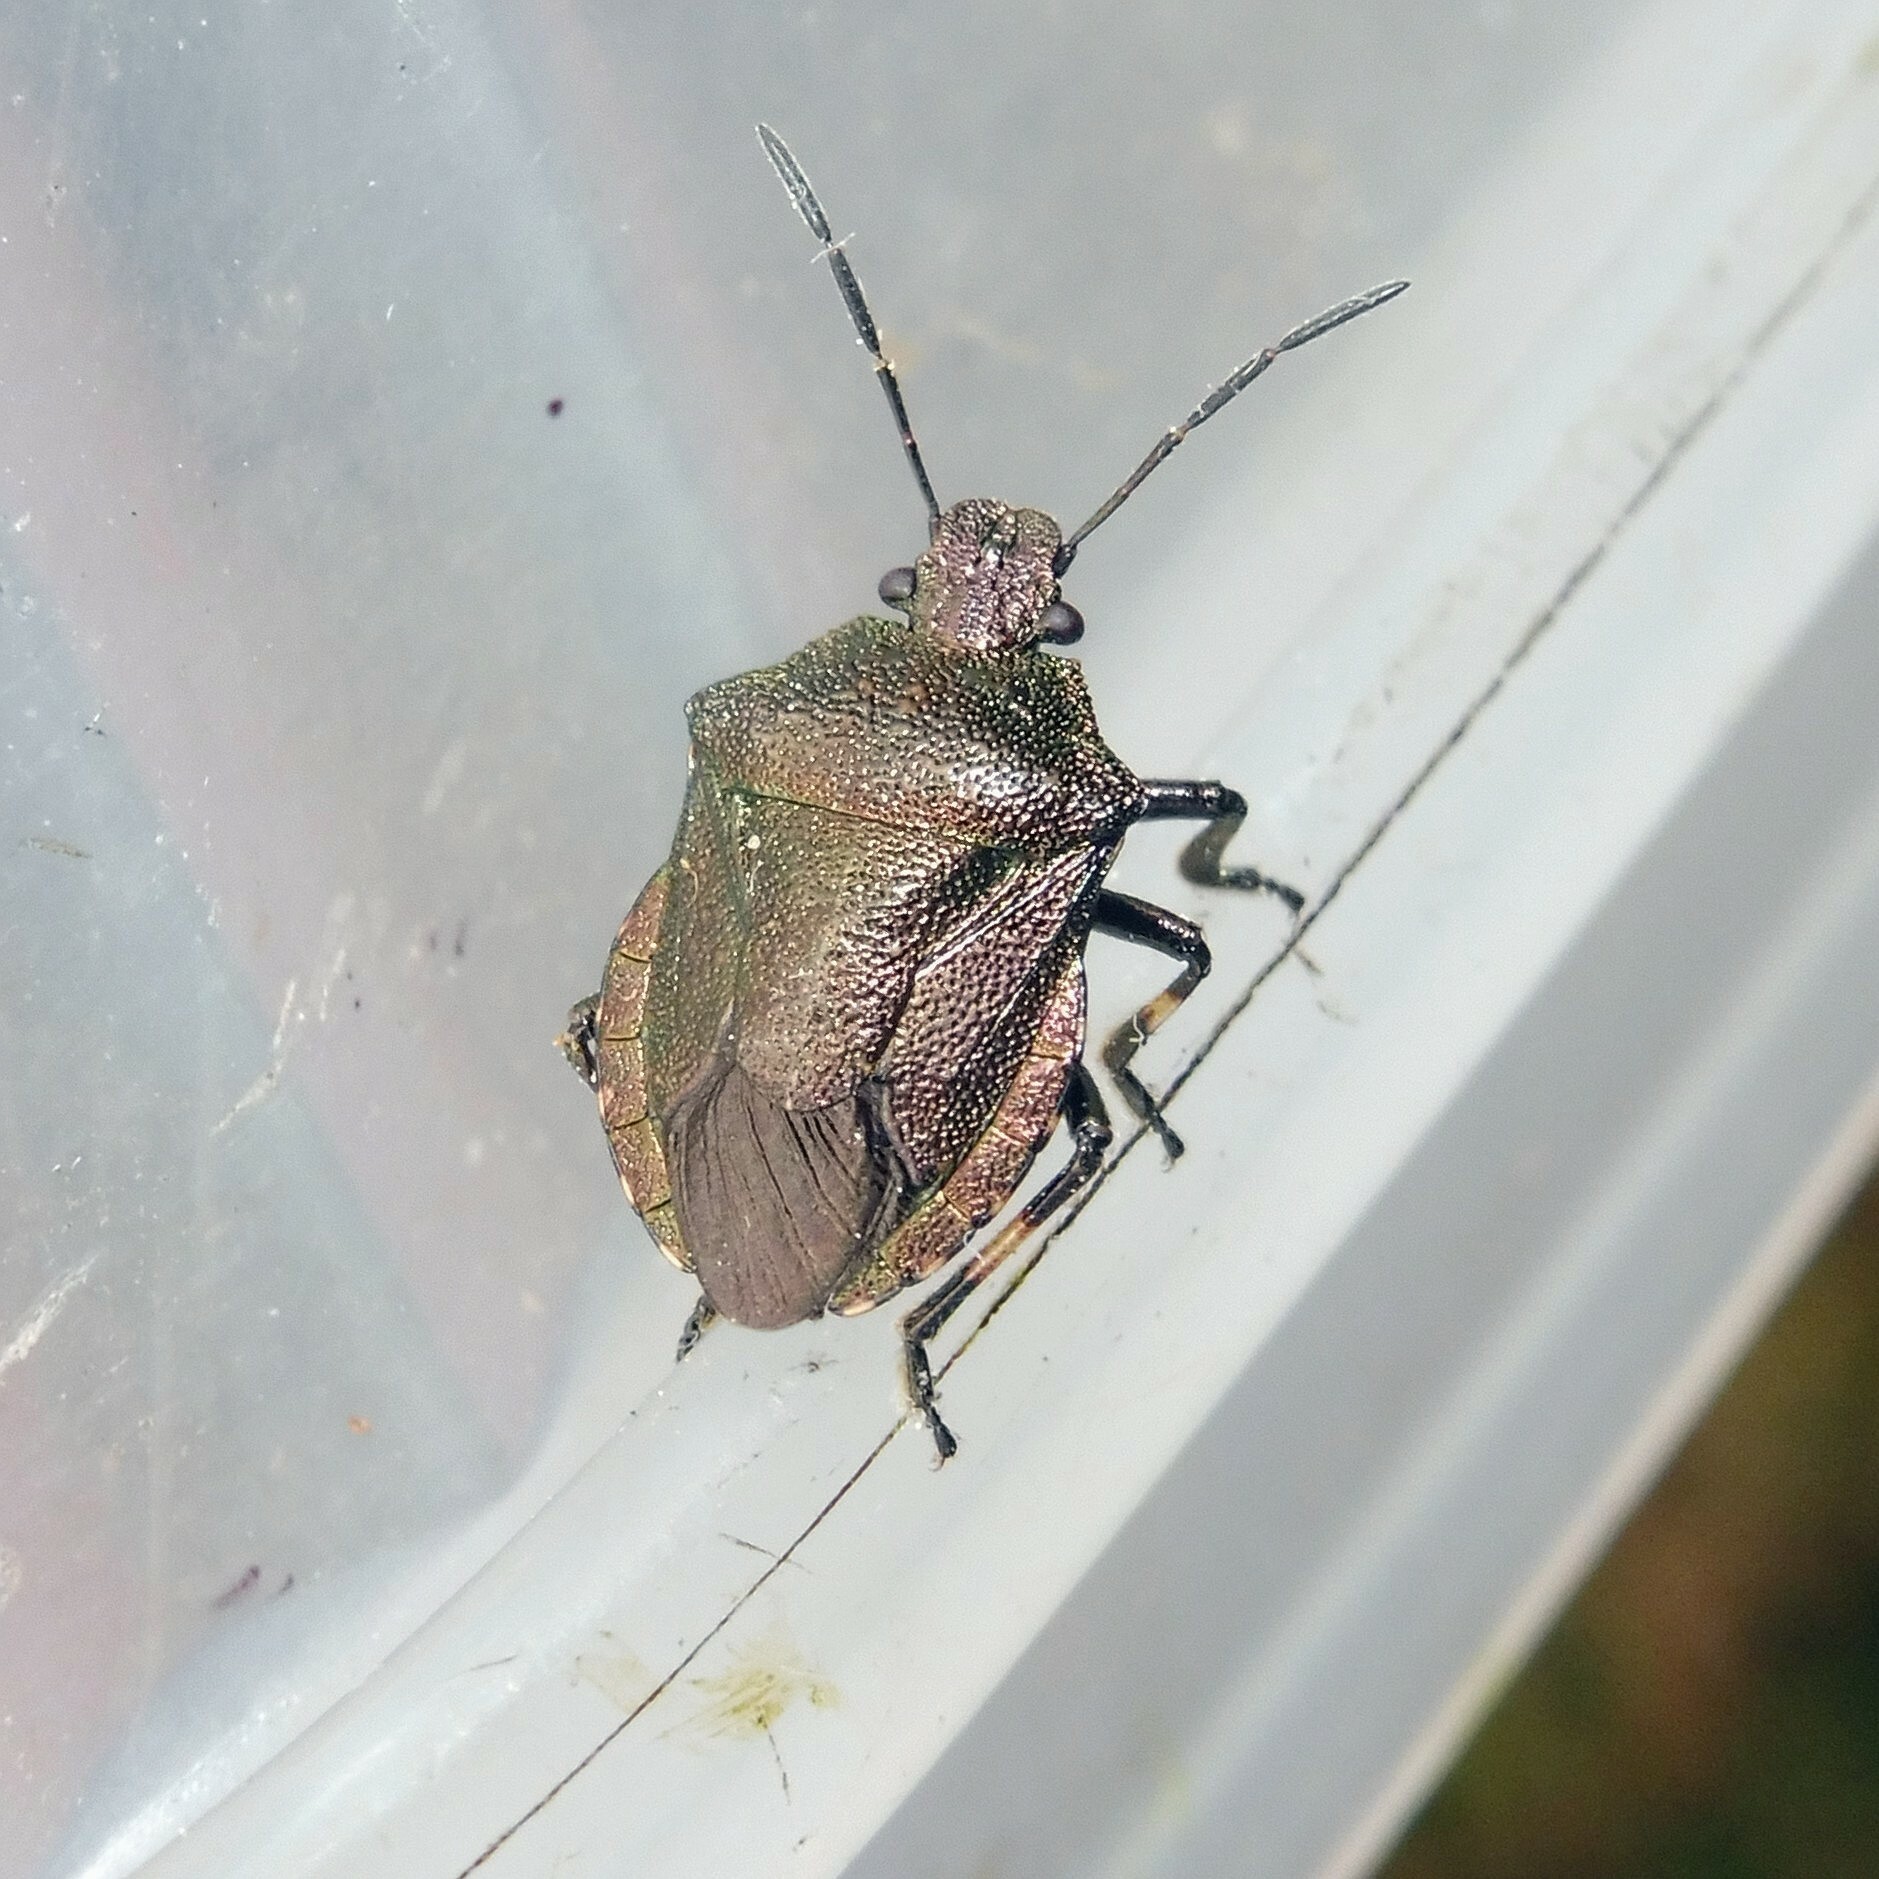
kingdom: Animalia
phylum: Arthropoda
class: Insecta
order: Hemiptera
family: Pentatomidae
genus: Rhacognathus
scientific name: Rhacognathus punctatus
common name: Heather bug
